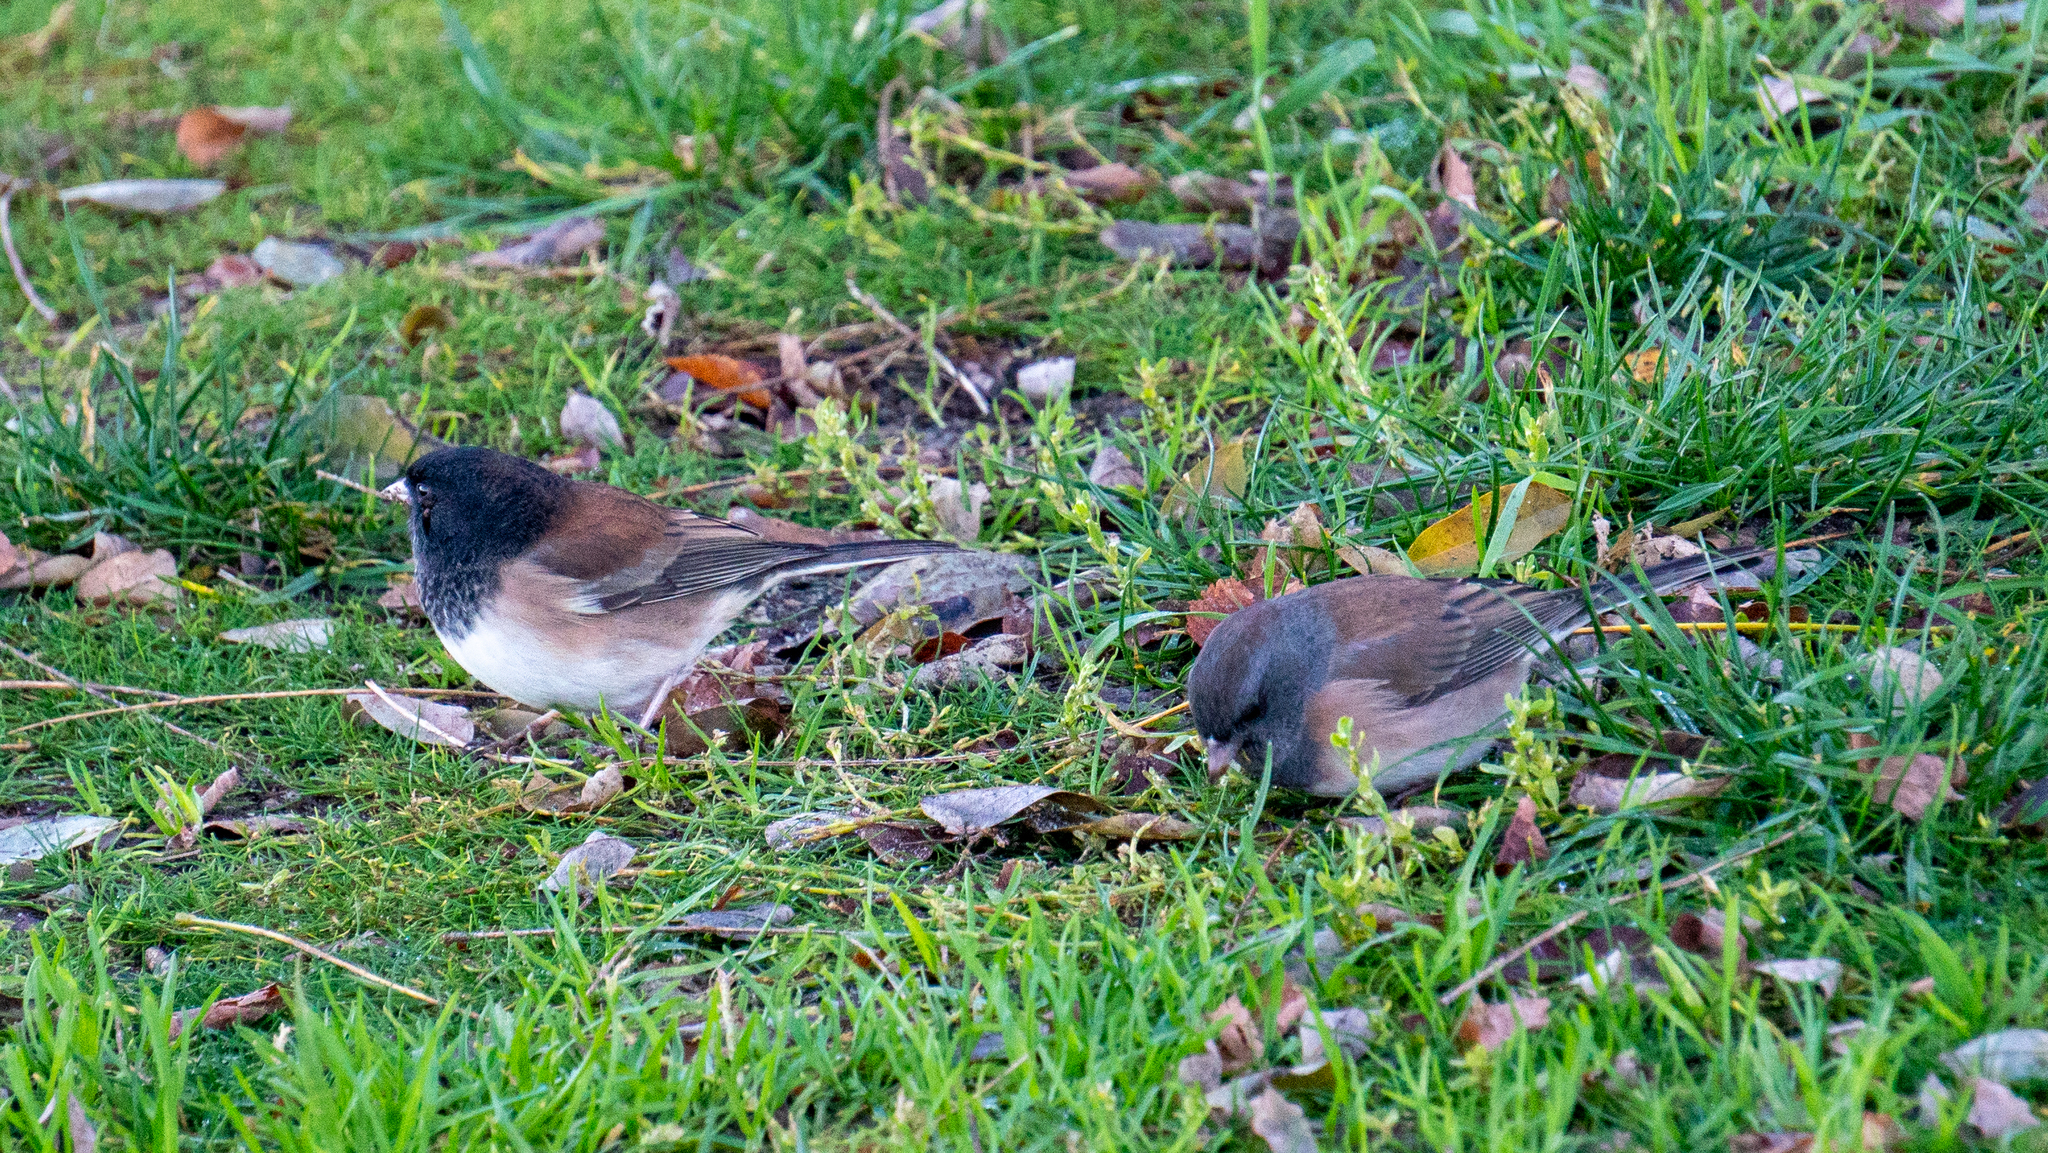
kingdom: Animalia
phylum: Chordata
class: Aves
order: Passeriformes
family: Passerellidae
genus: Junco
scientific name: Junco hyemalis
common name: Dark-eyed junco
